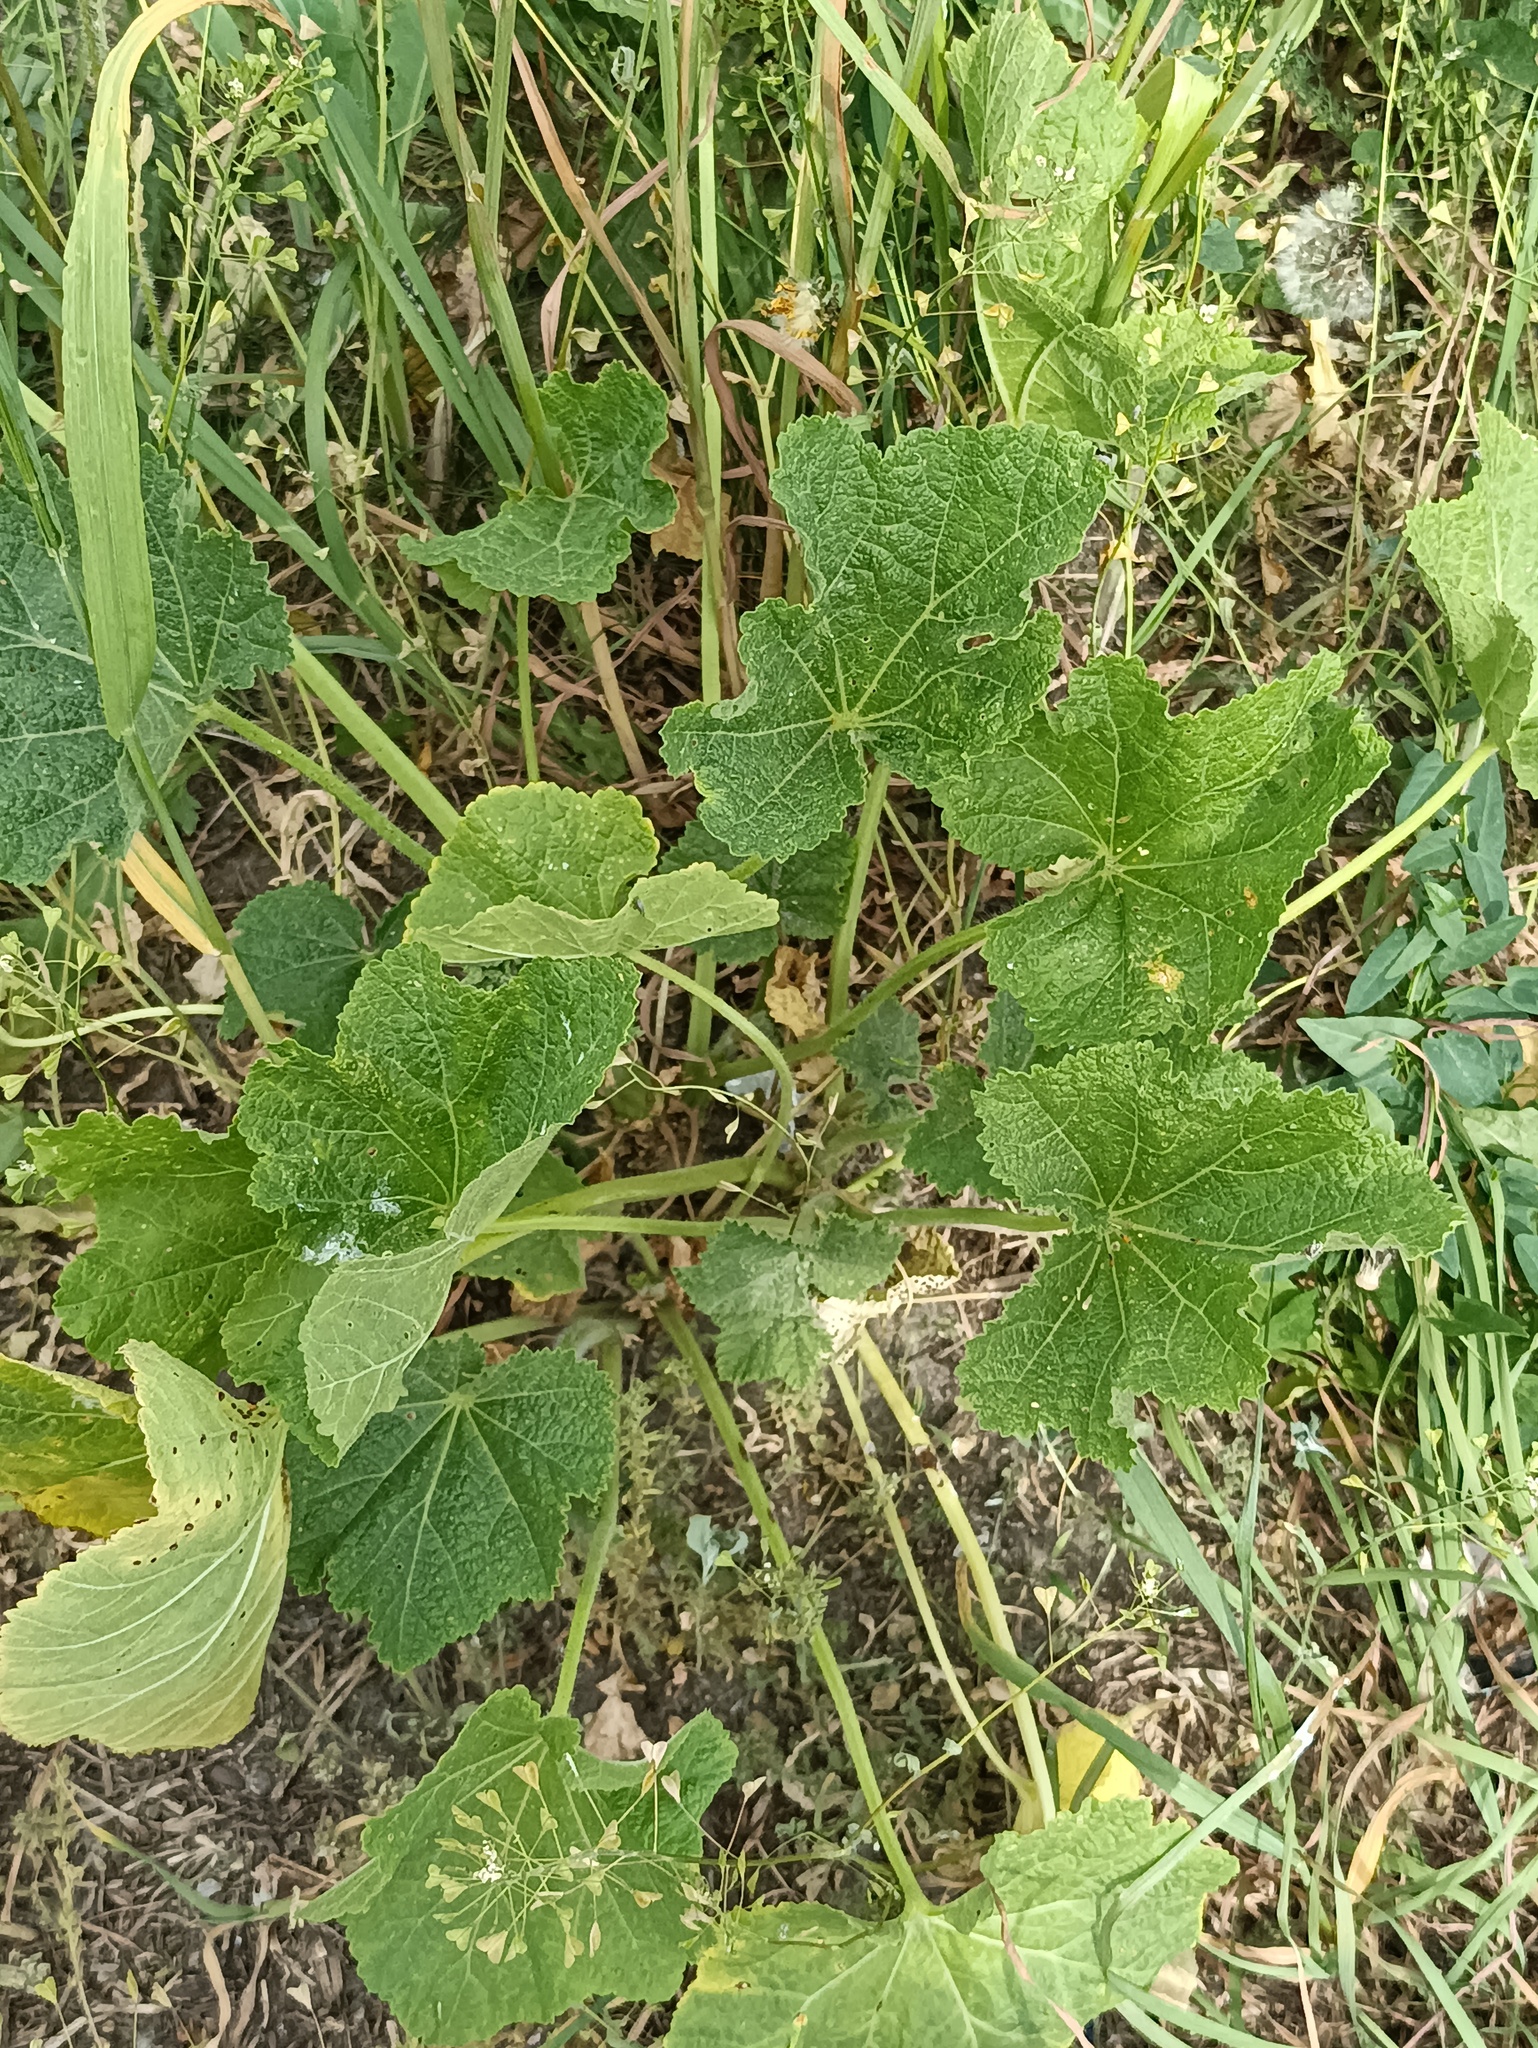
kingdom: Plantae
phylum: Tracheophyta
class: Magnoliopsida
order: Malvales
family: Malvaceae
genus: Alcea
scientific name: Alcea rosea
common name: Hollyhock
